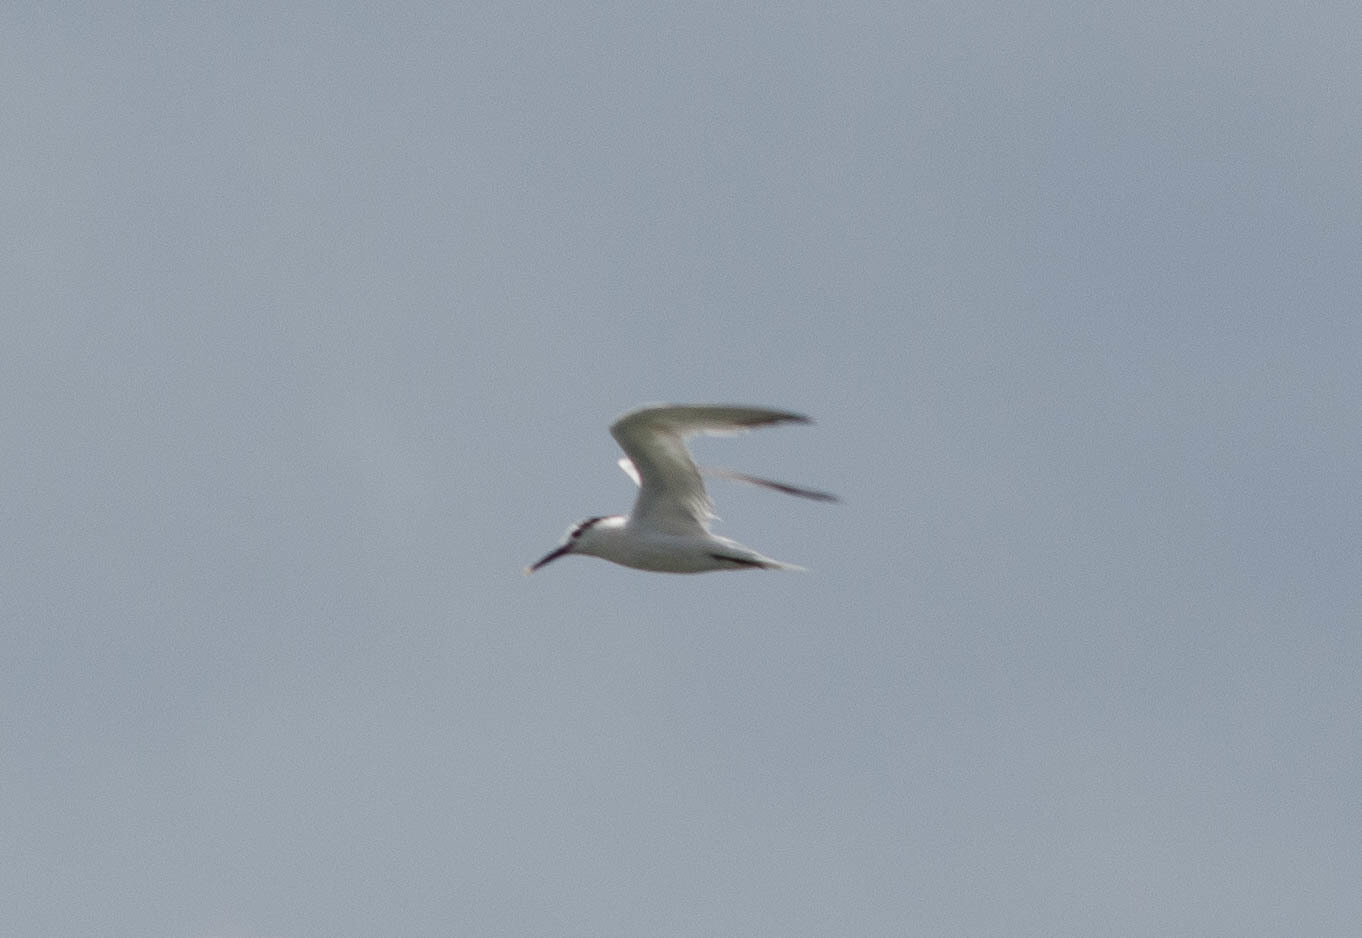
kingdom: Animalia
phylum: Chordata
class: Aves
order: Charadriiformes
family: Laridae
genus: Thalasseus
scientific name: Thalasseus sandvicensis
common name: Sandwich tern
